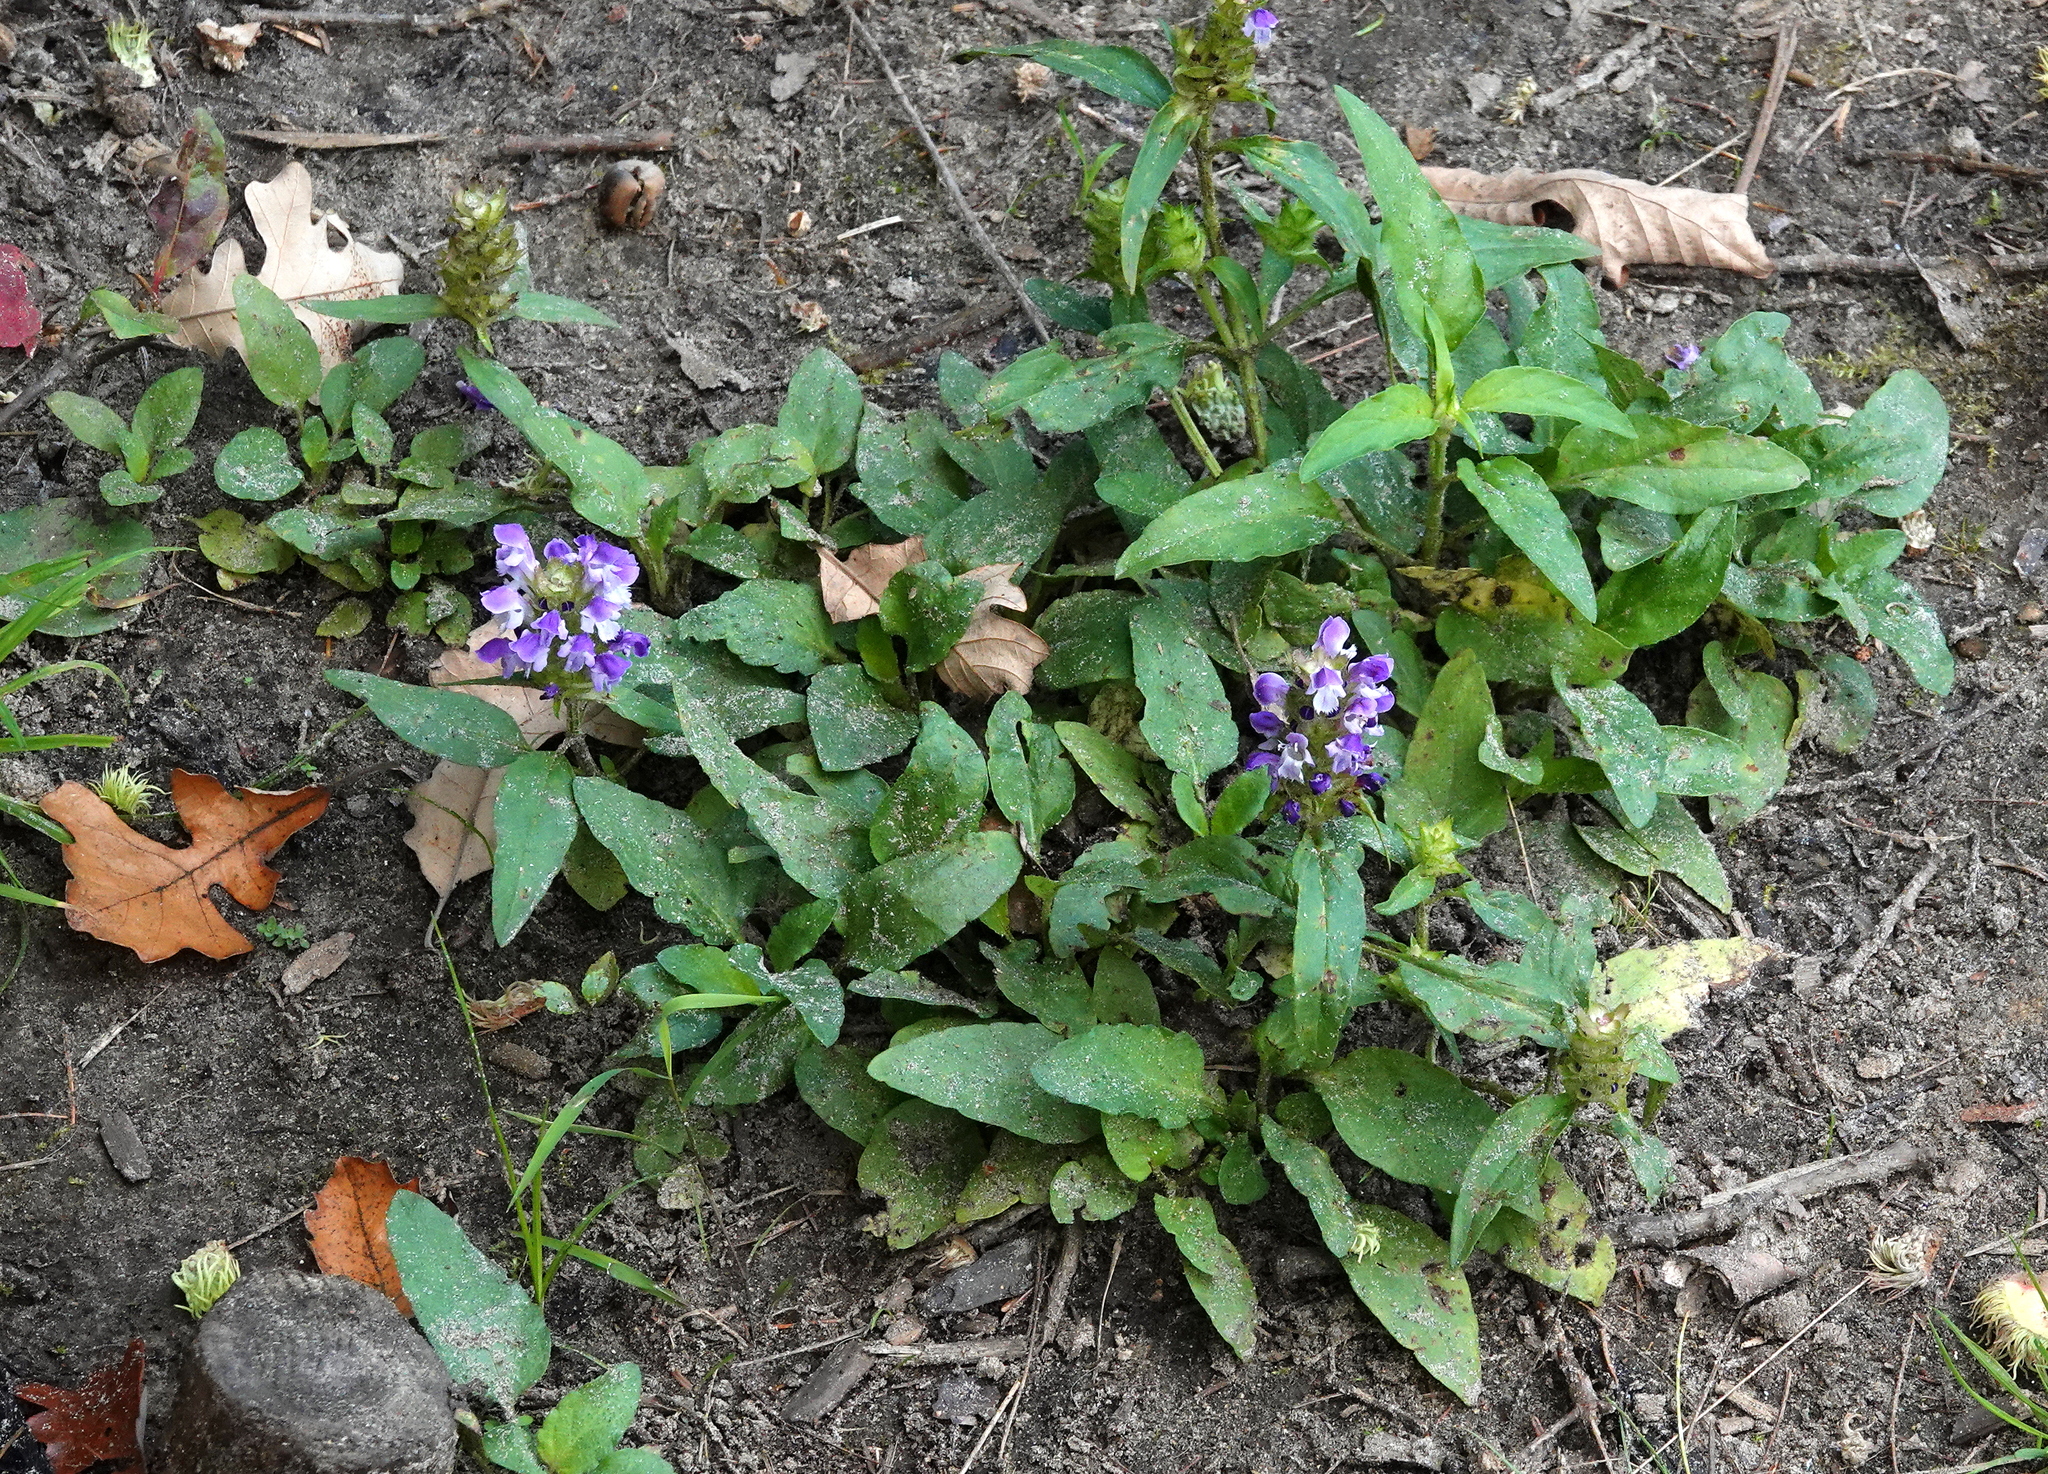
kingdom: Plantae
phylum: Tracheophyta
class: Magnoliopsida
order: Lamiales
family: Lamiaceae
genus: Prunella
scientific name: Prunella vulgaris
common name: Heal-all
